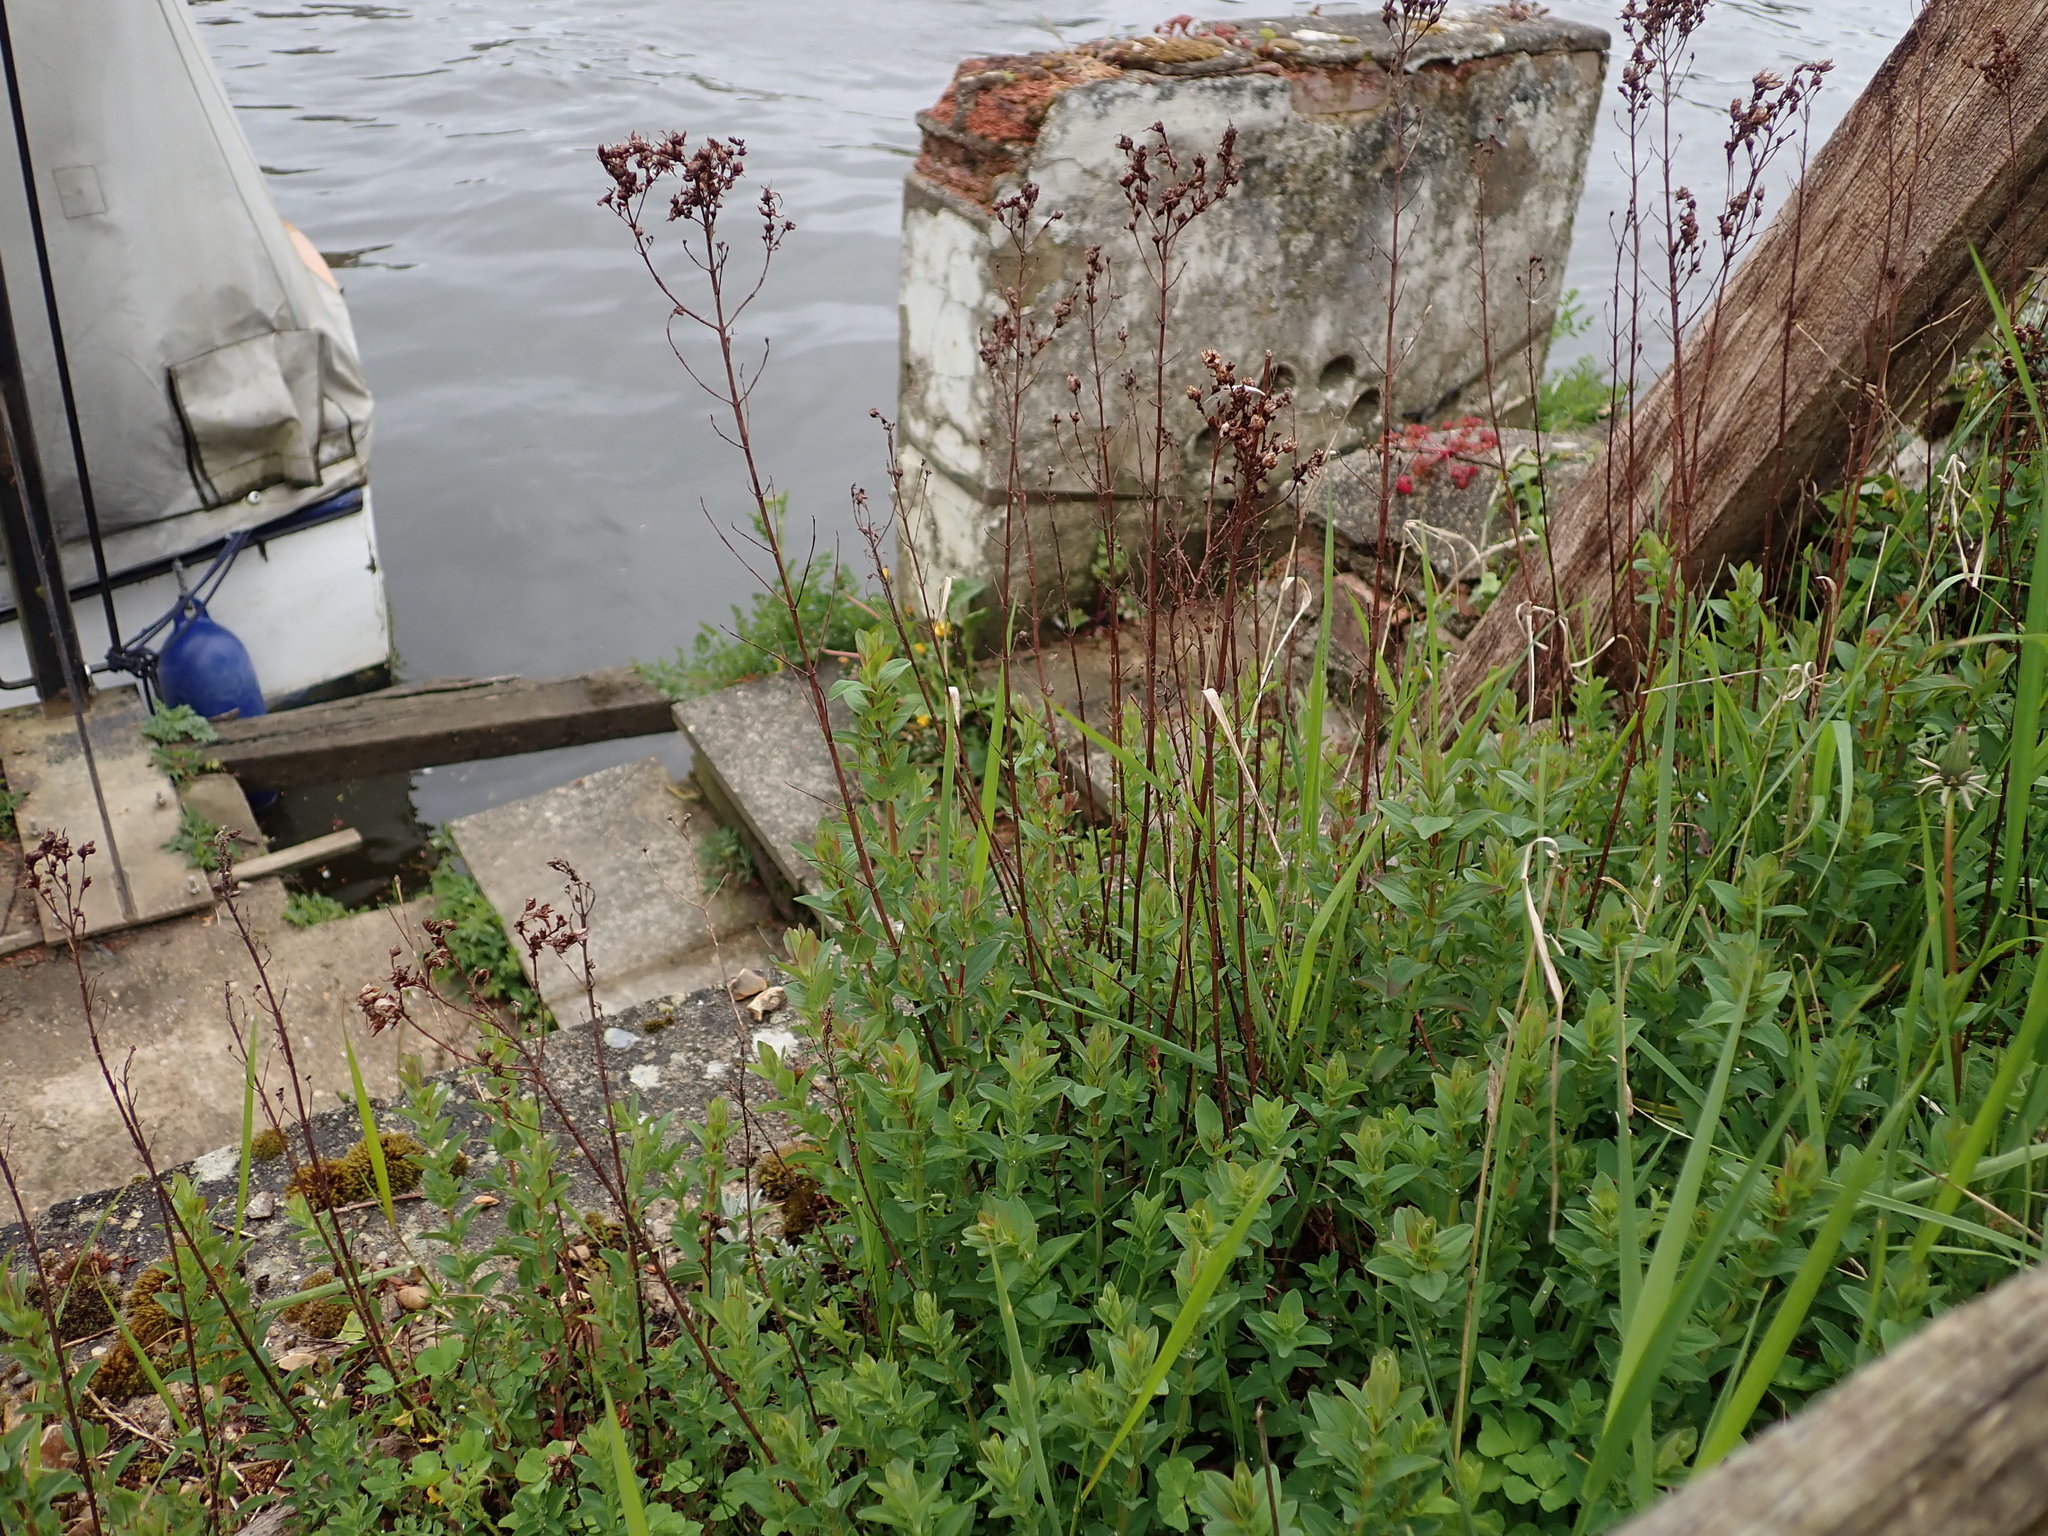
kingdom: Plantae
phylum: Tracheophyta
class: Magnoliopsida
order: Malpighiales
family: Hypericaceae
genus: Hypericum
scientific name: Hypericum perforatum
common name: Common st. johnswort
